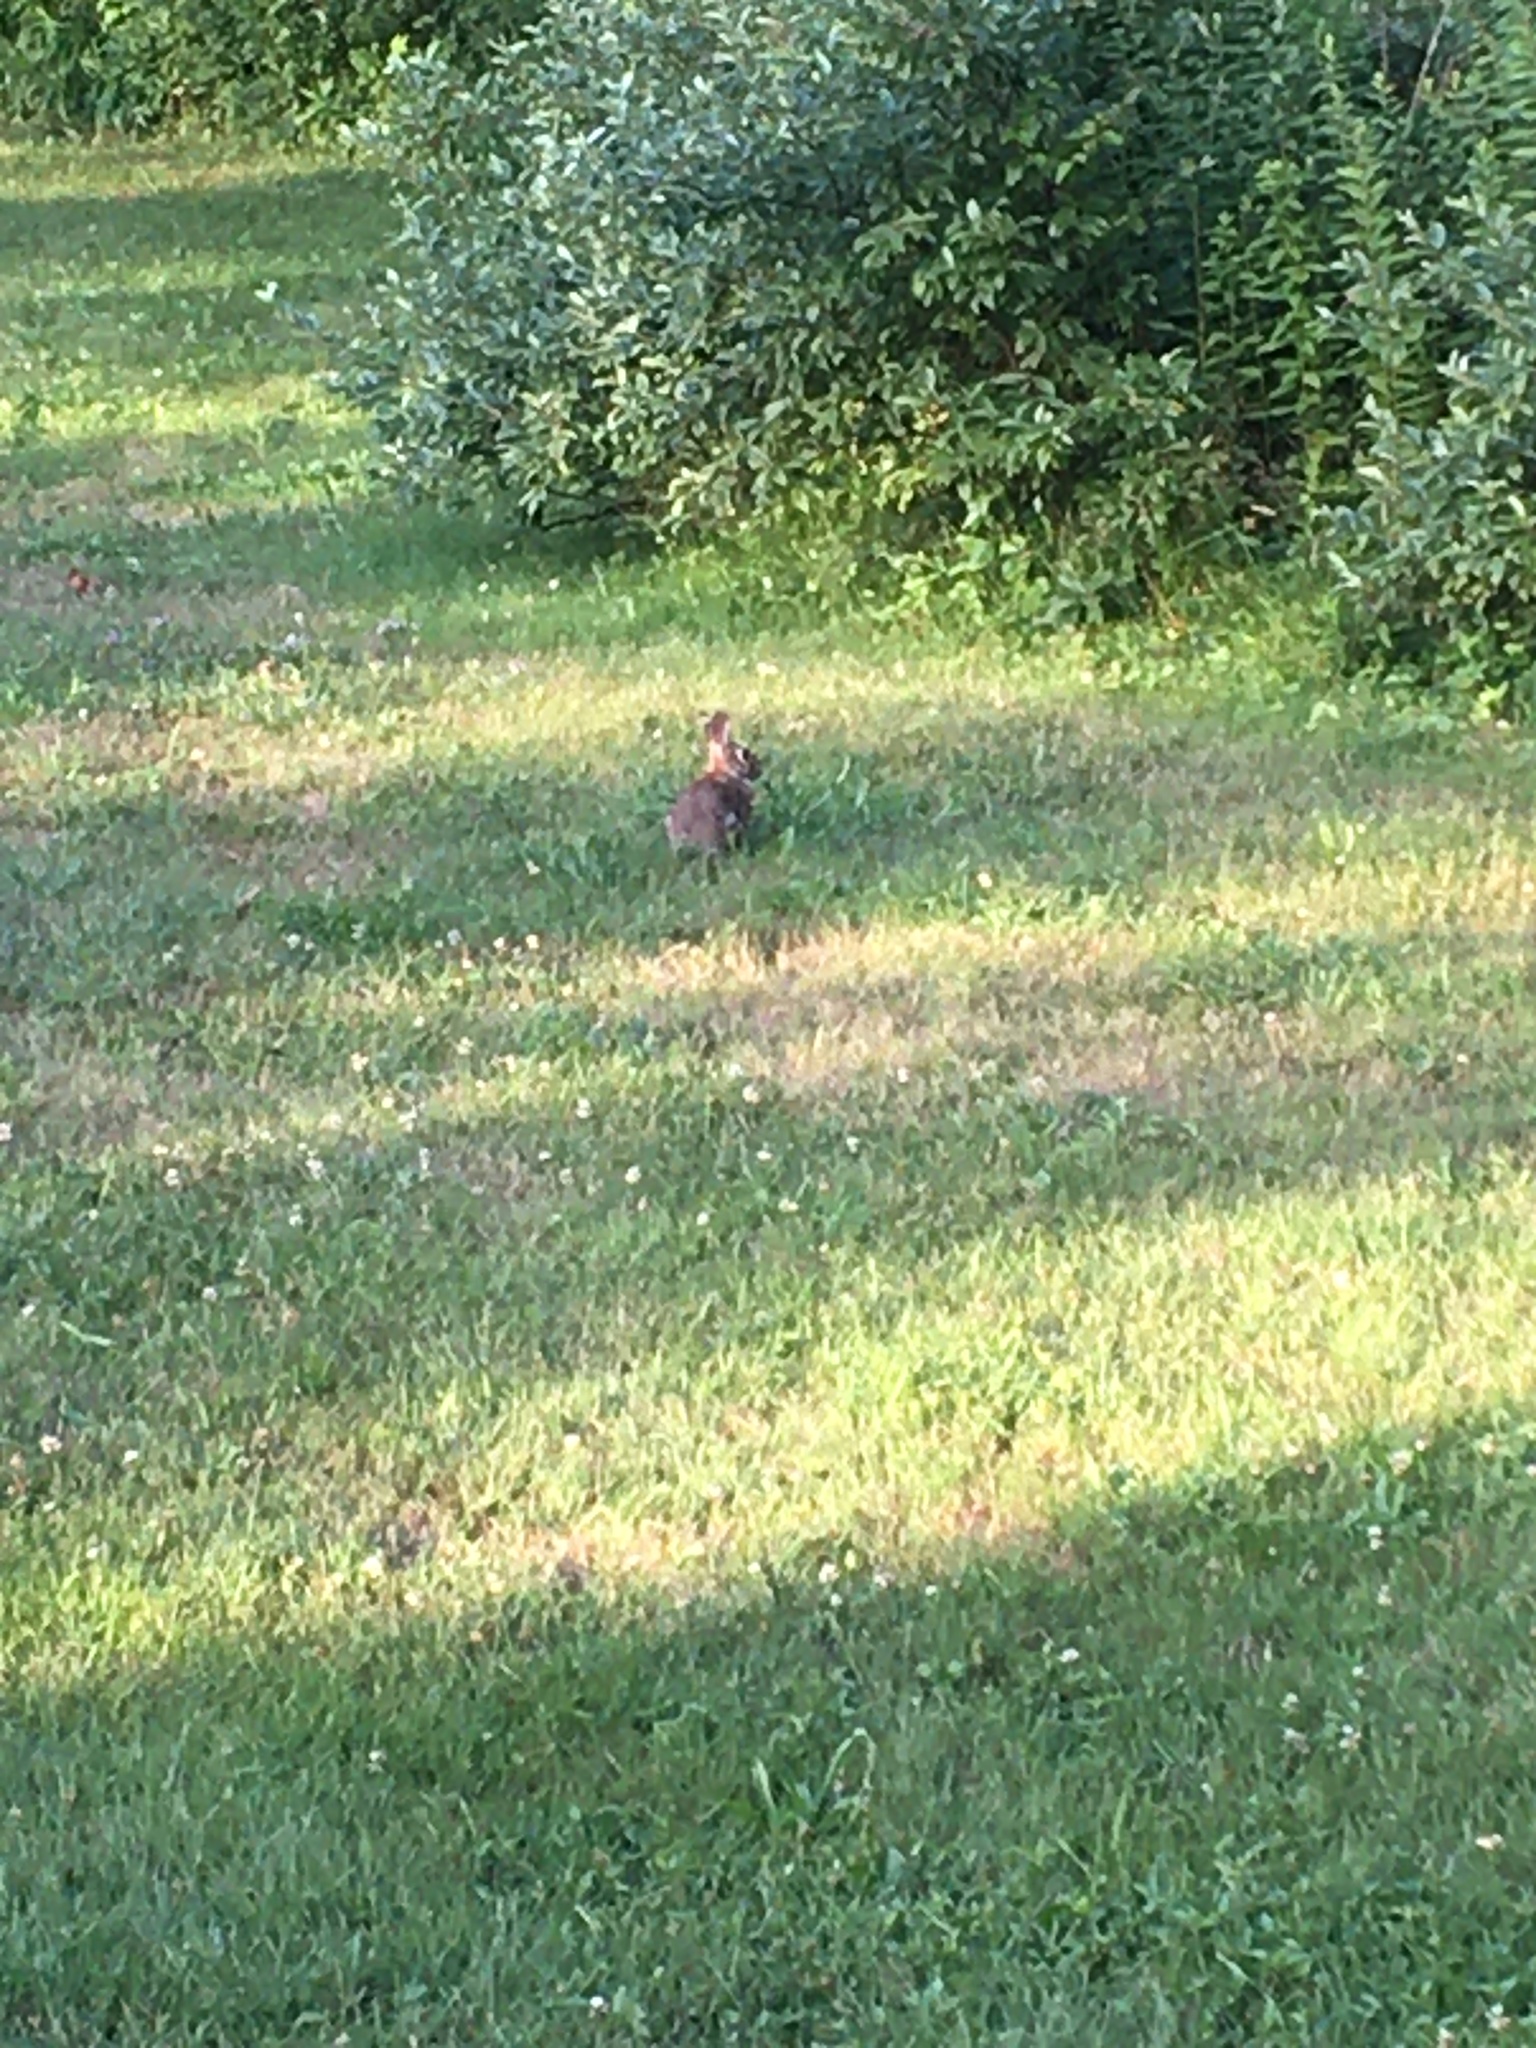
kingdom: Animalia
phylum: Chordata
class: Mammalia
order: Lagomorpha
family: Leporidae
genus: Sylvilagus
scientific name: Sylvilagus floridanus
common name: Eastern cottontail
